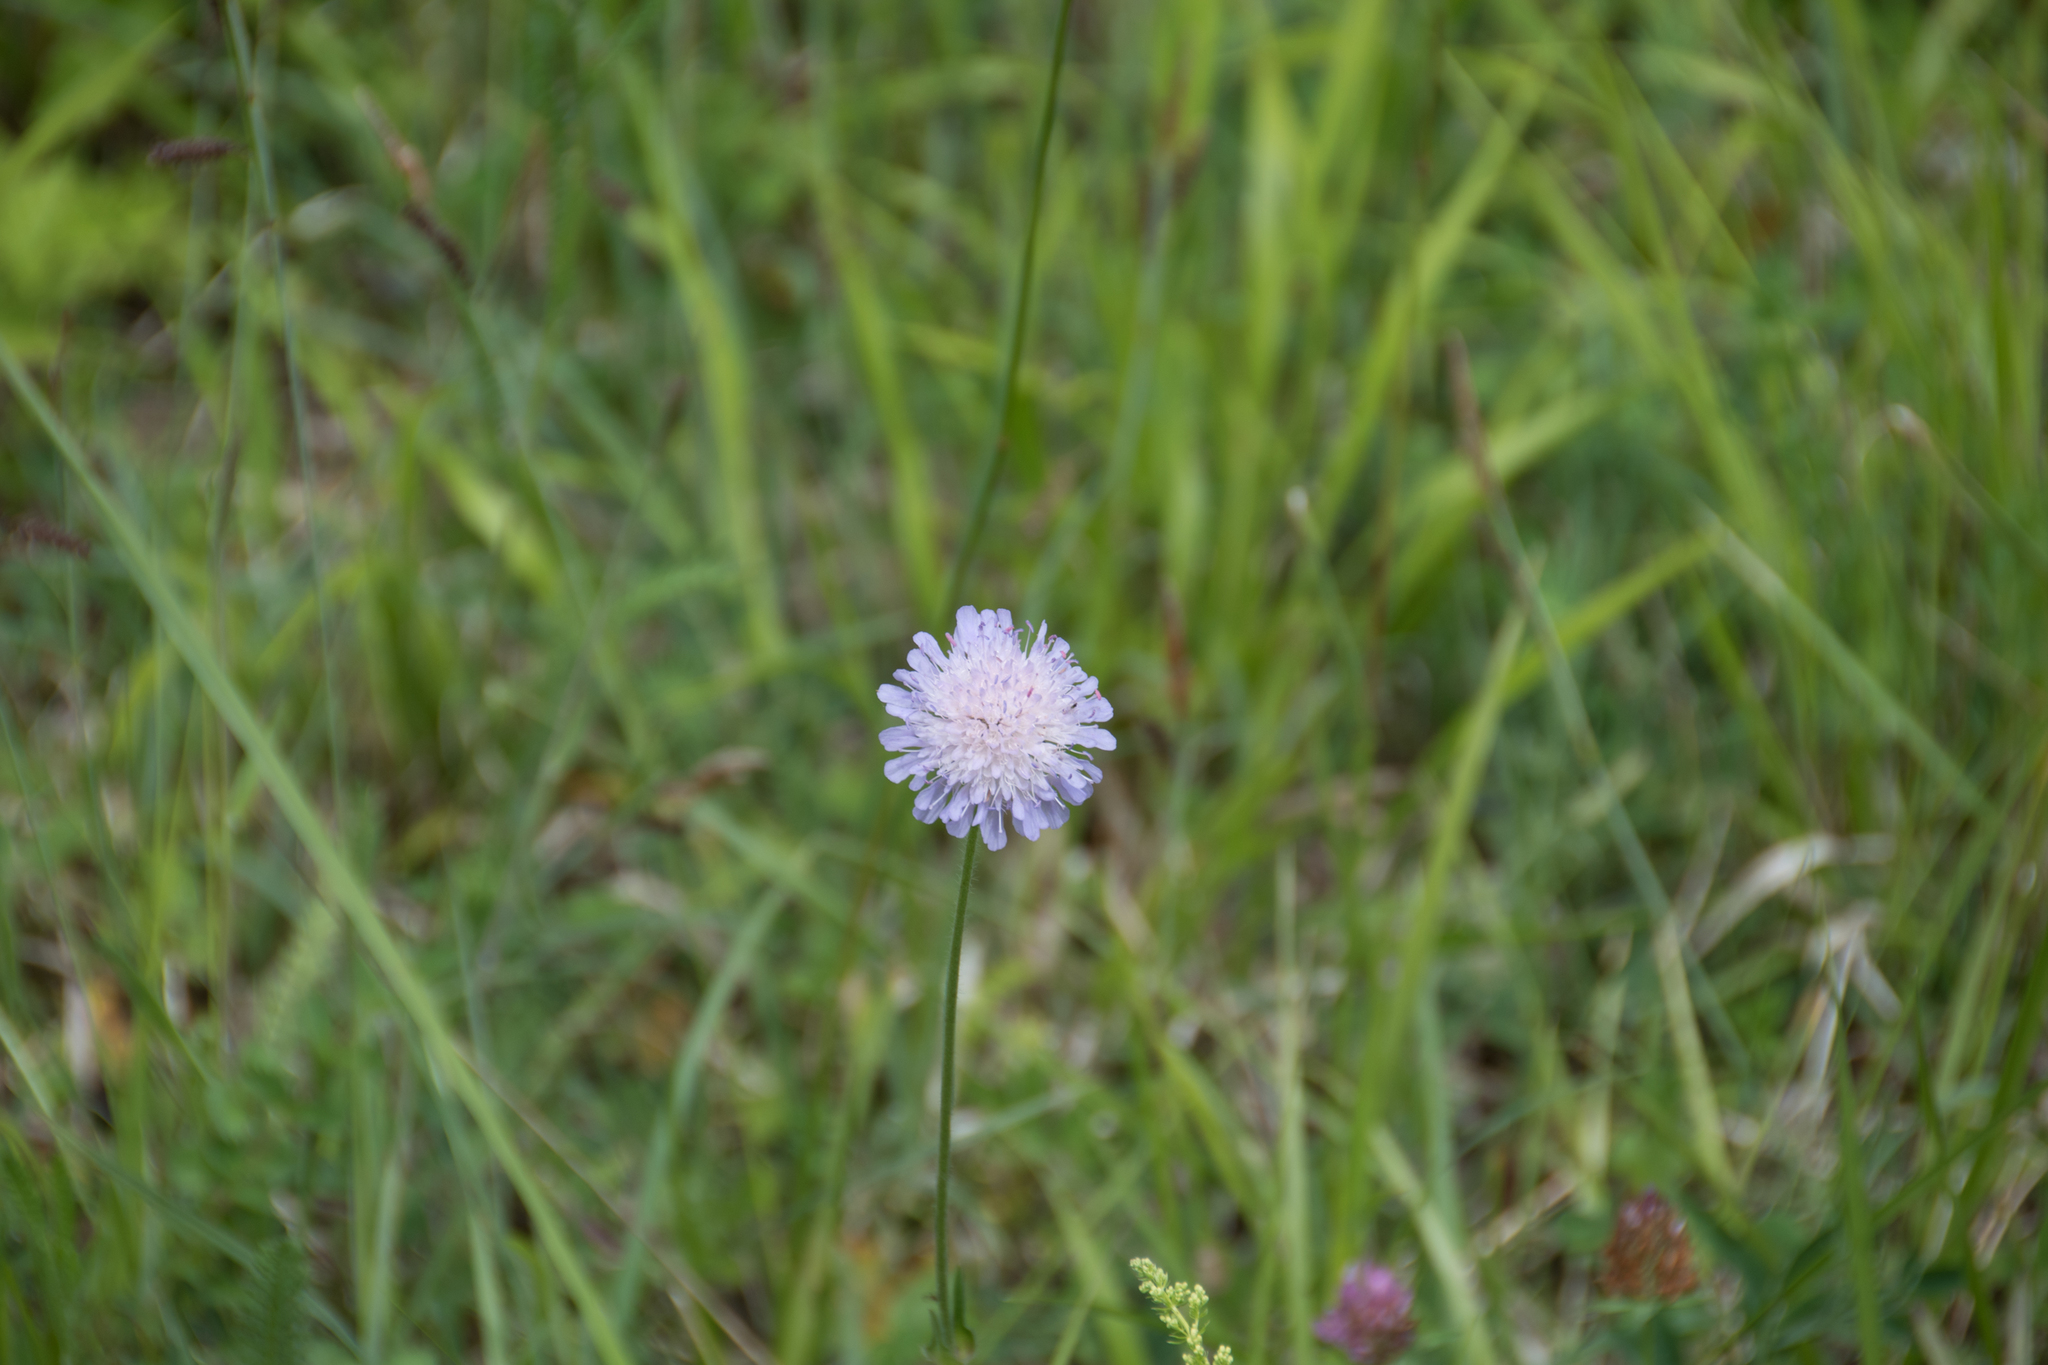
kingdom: Plantae
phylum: Tracheophyta
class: Magnoliopsida
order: Dipsacales
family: Caprifoliaceae
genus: Knautia
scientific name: Knautia arvensis
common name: Field scabiosa
